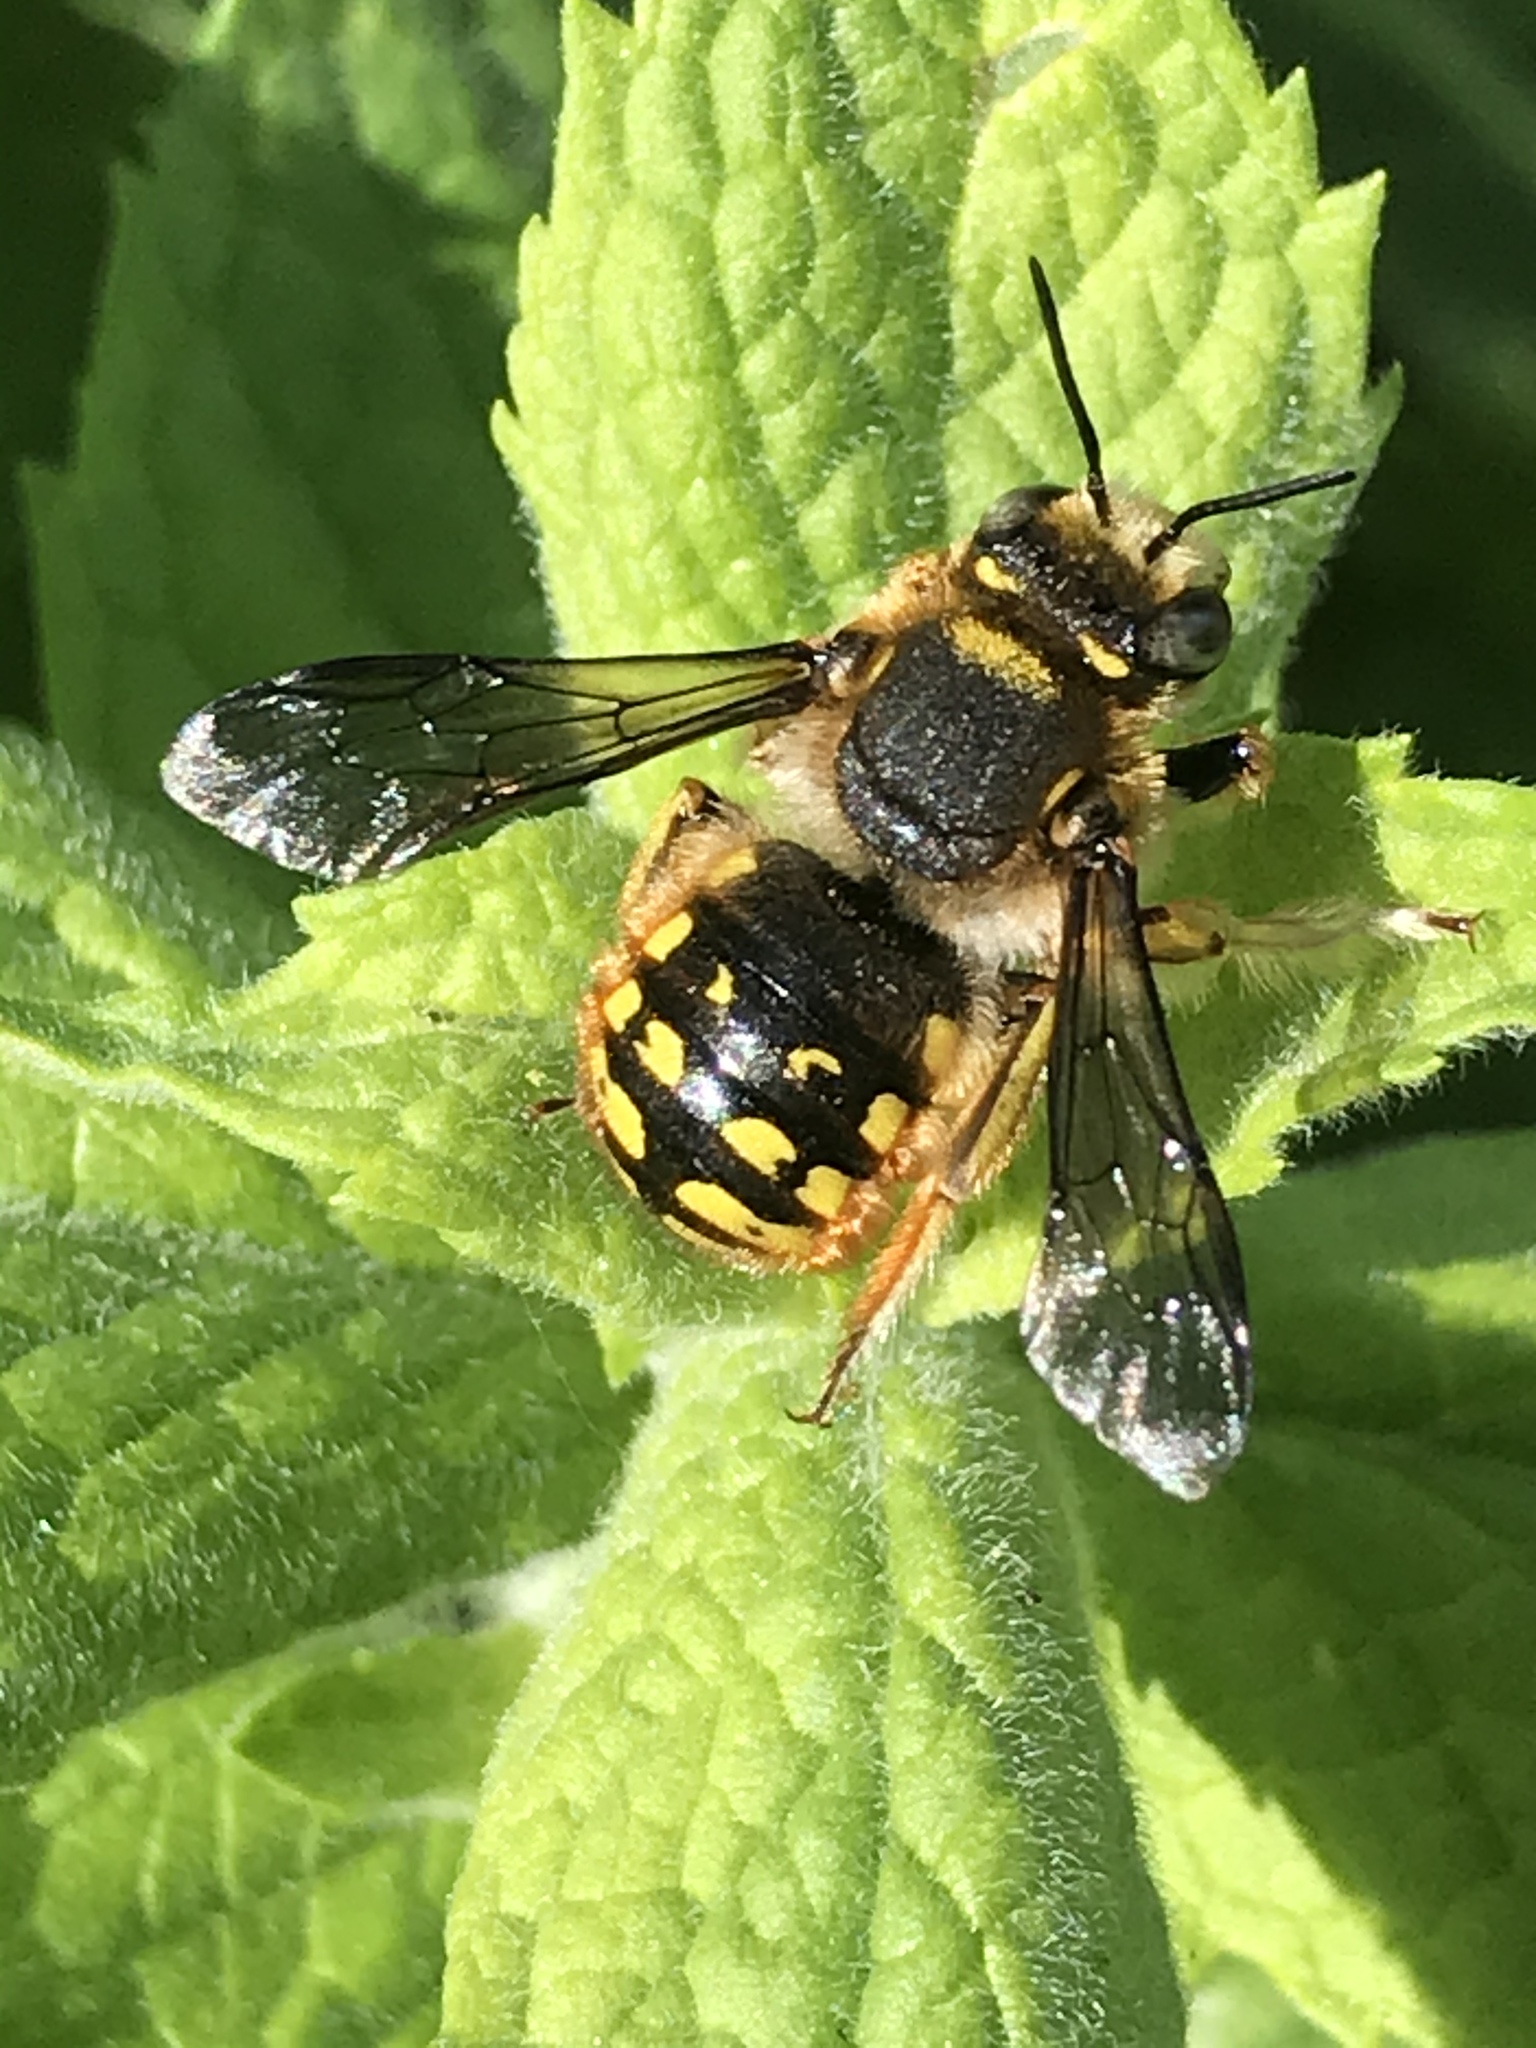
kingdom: Animalia
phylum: Arthropoda
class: Insecta
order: Hymenoptera
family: Megachilidae
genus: Anthidium
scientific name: Anthidium manicatum
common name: Wool carder bee
